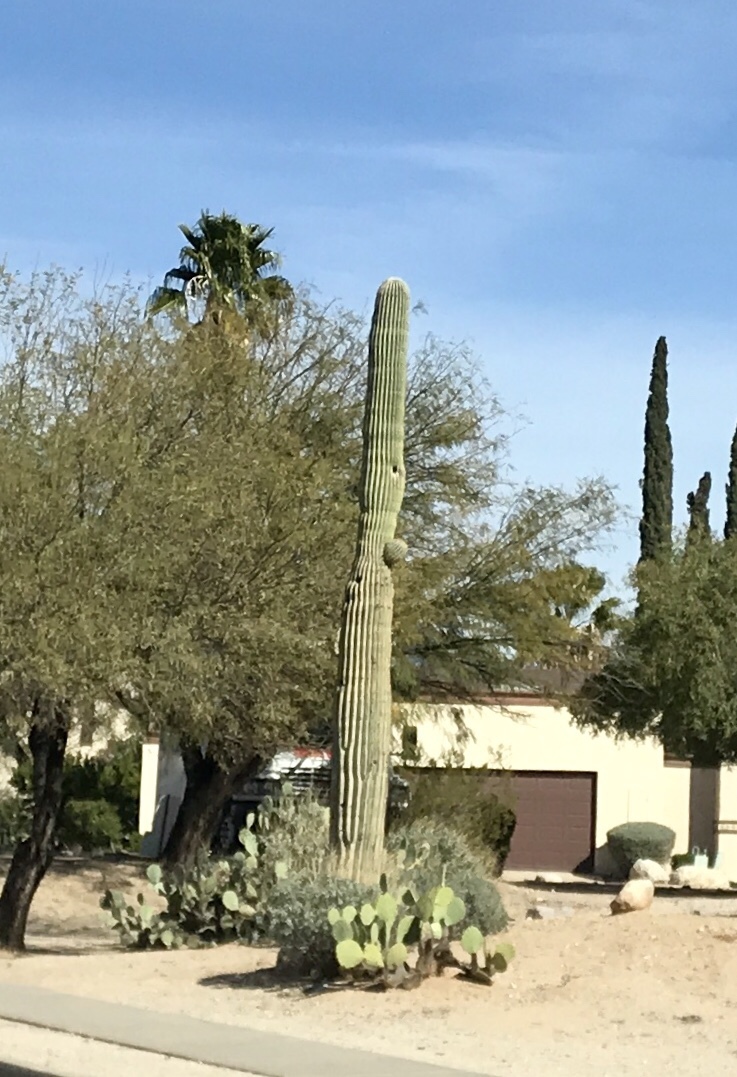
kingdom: Plantae
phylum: Tracheophyta
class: Magnoliopsida
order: Caryophyllales
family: Cactaceae
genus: Carnegiea
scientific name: Carnegiea gigantea
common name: Saguaro
